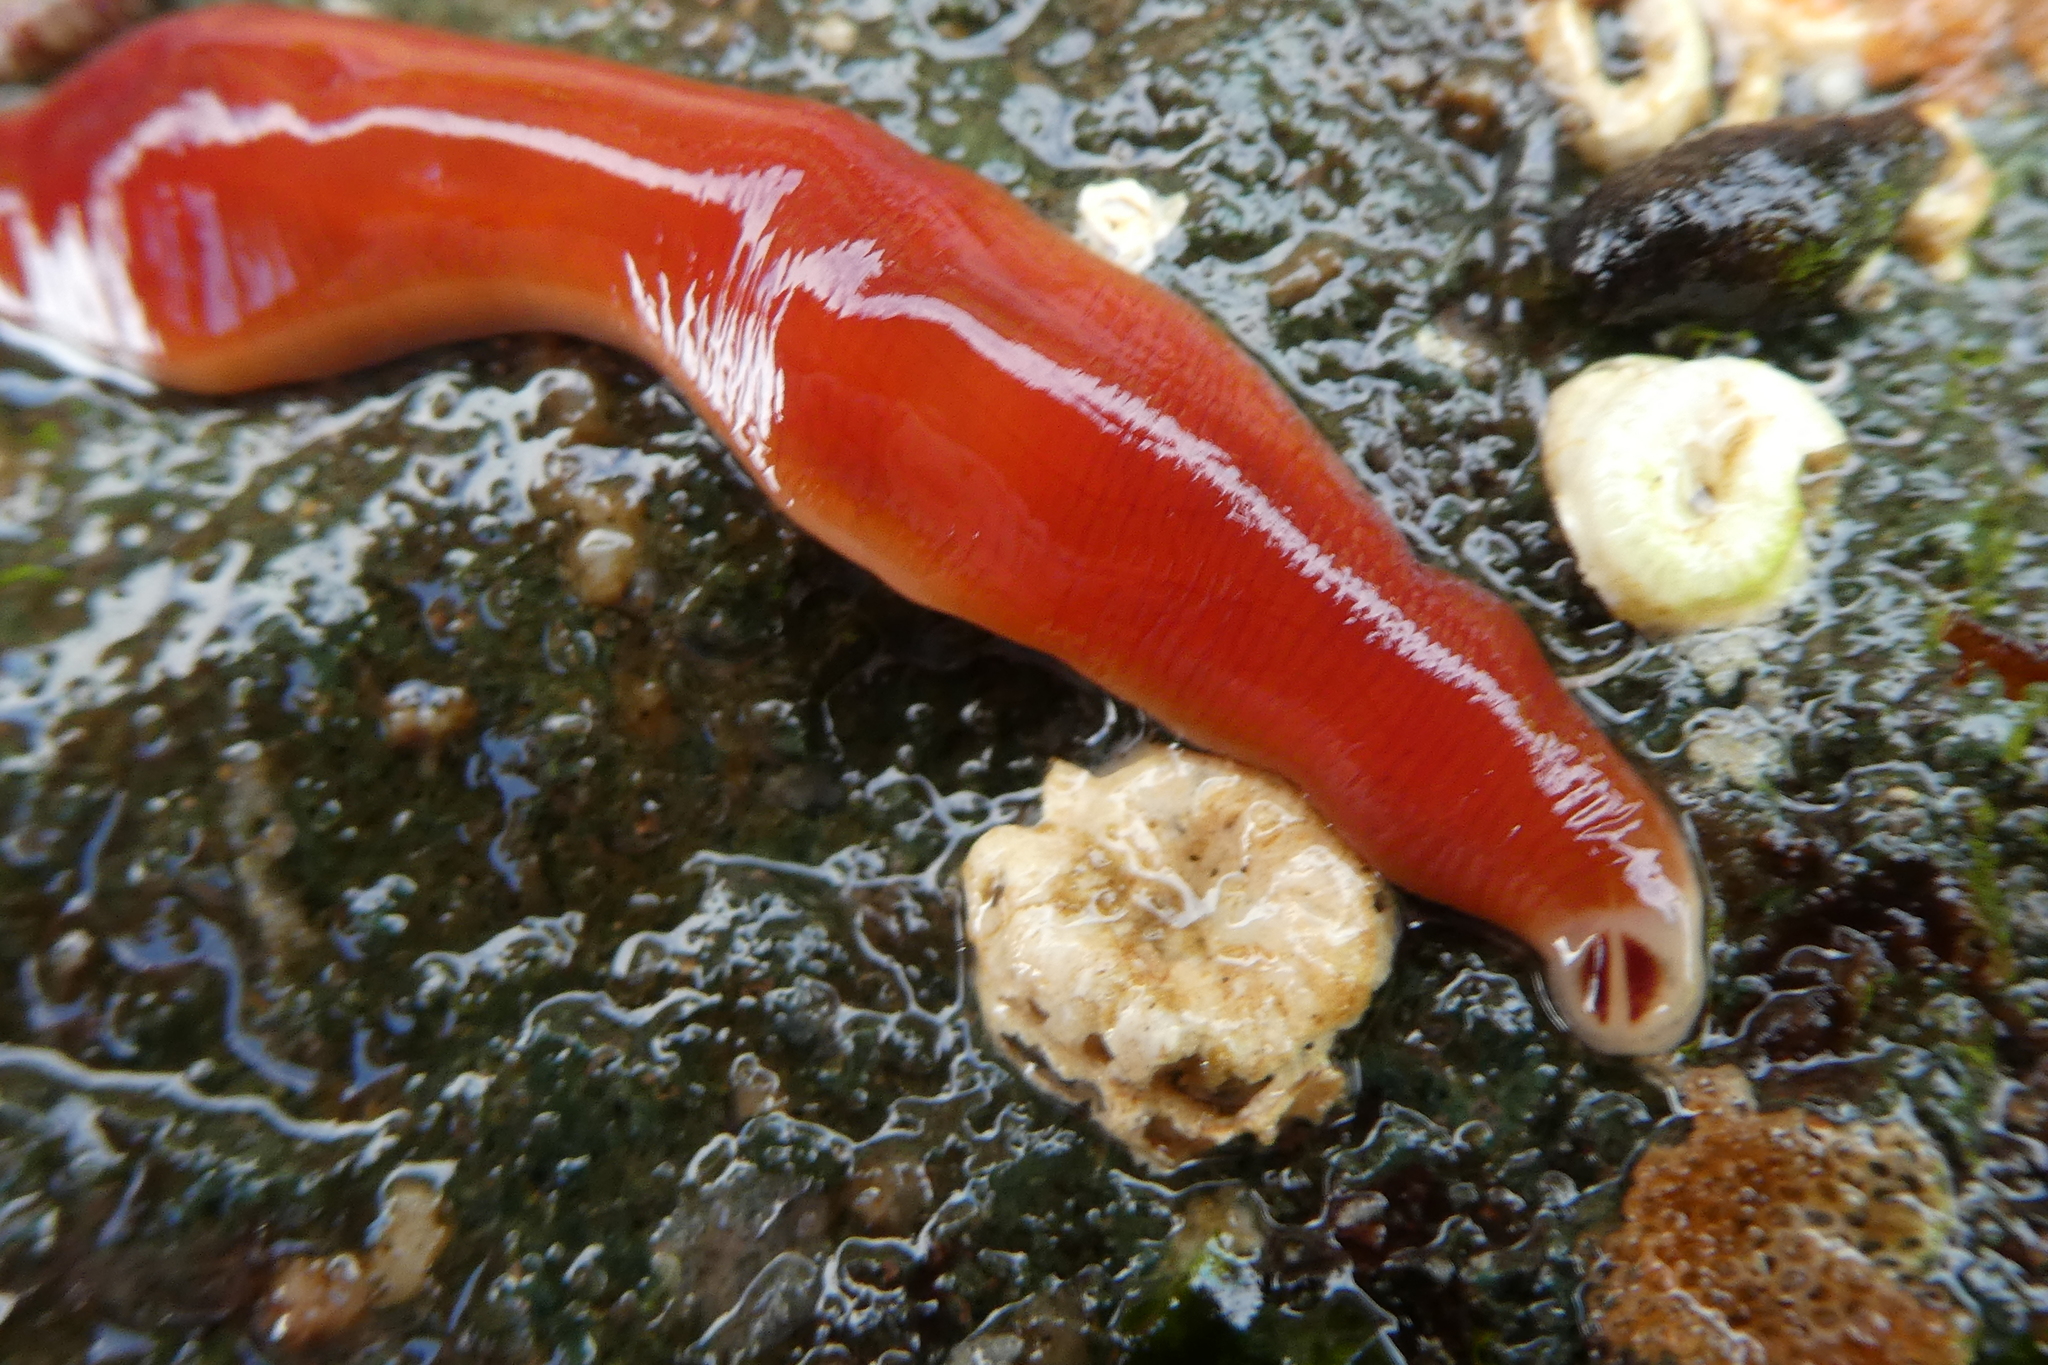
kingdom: Animalia
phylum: Nemertea
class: Hoplonemertea
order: Monostilifera
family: Cratenemertidae
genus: Nipponnemertes
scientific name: Nipponnemertes bimaculata
